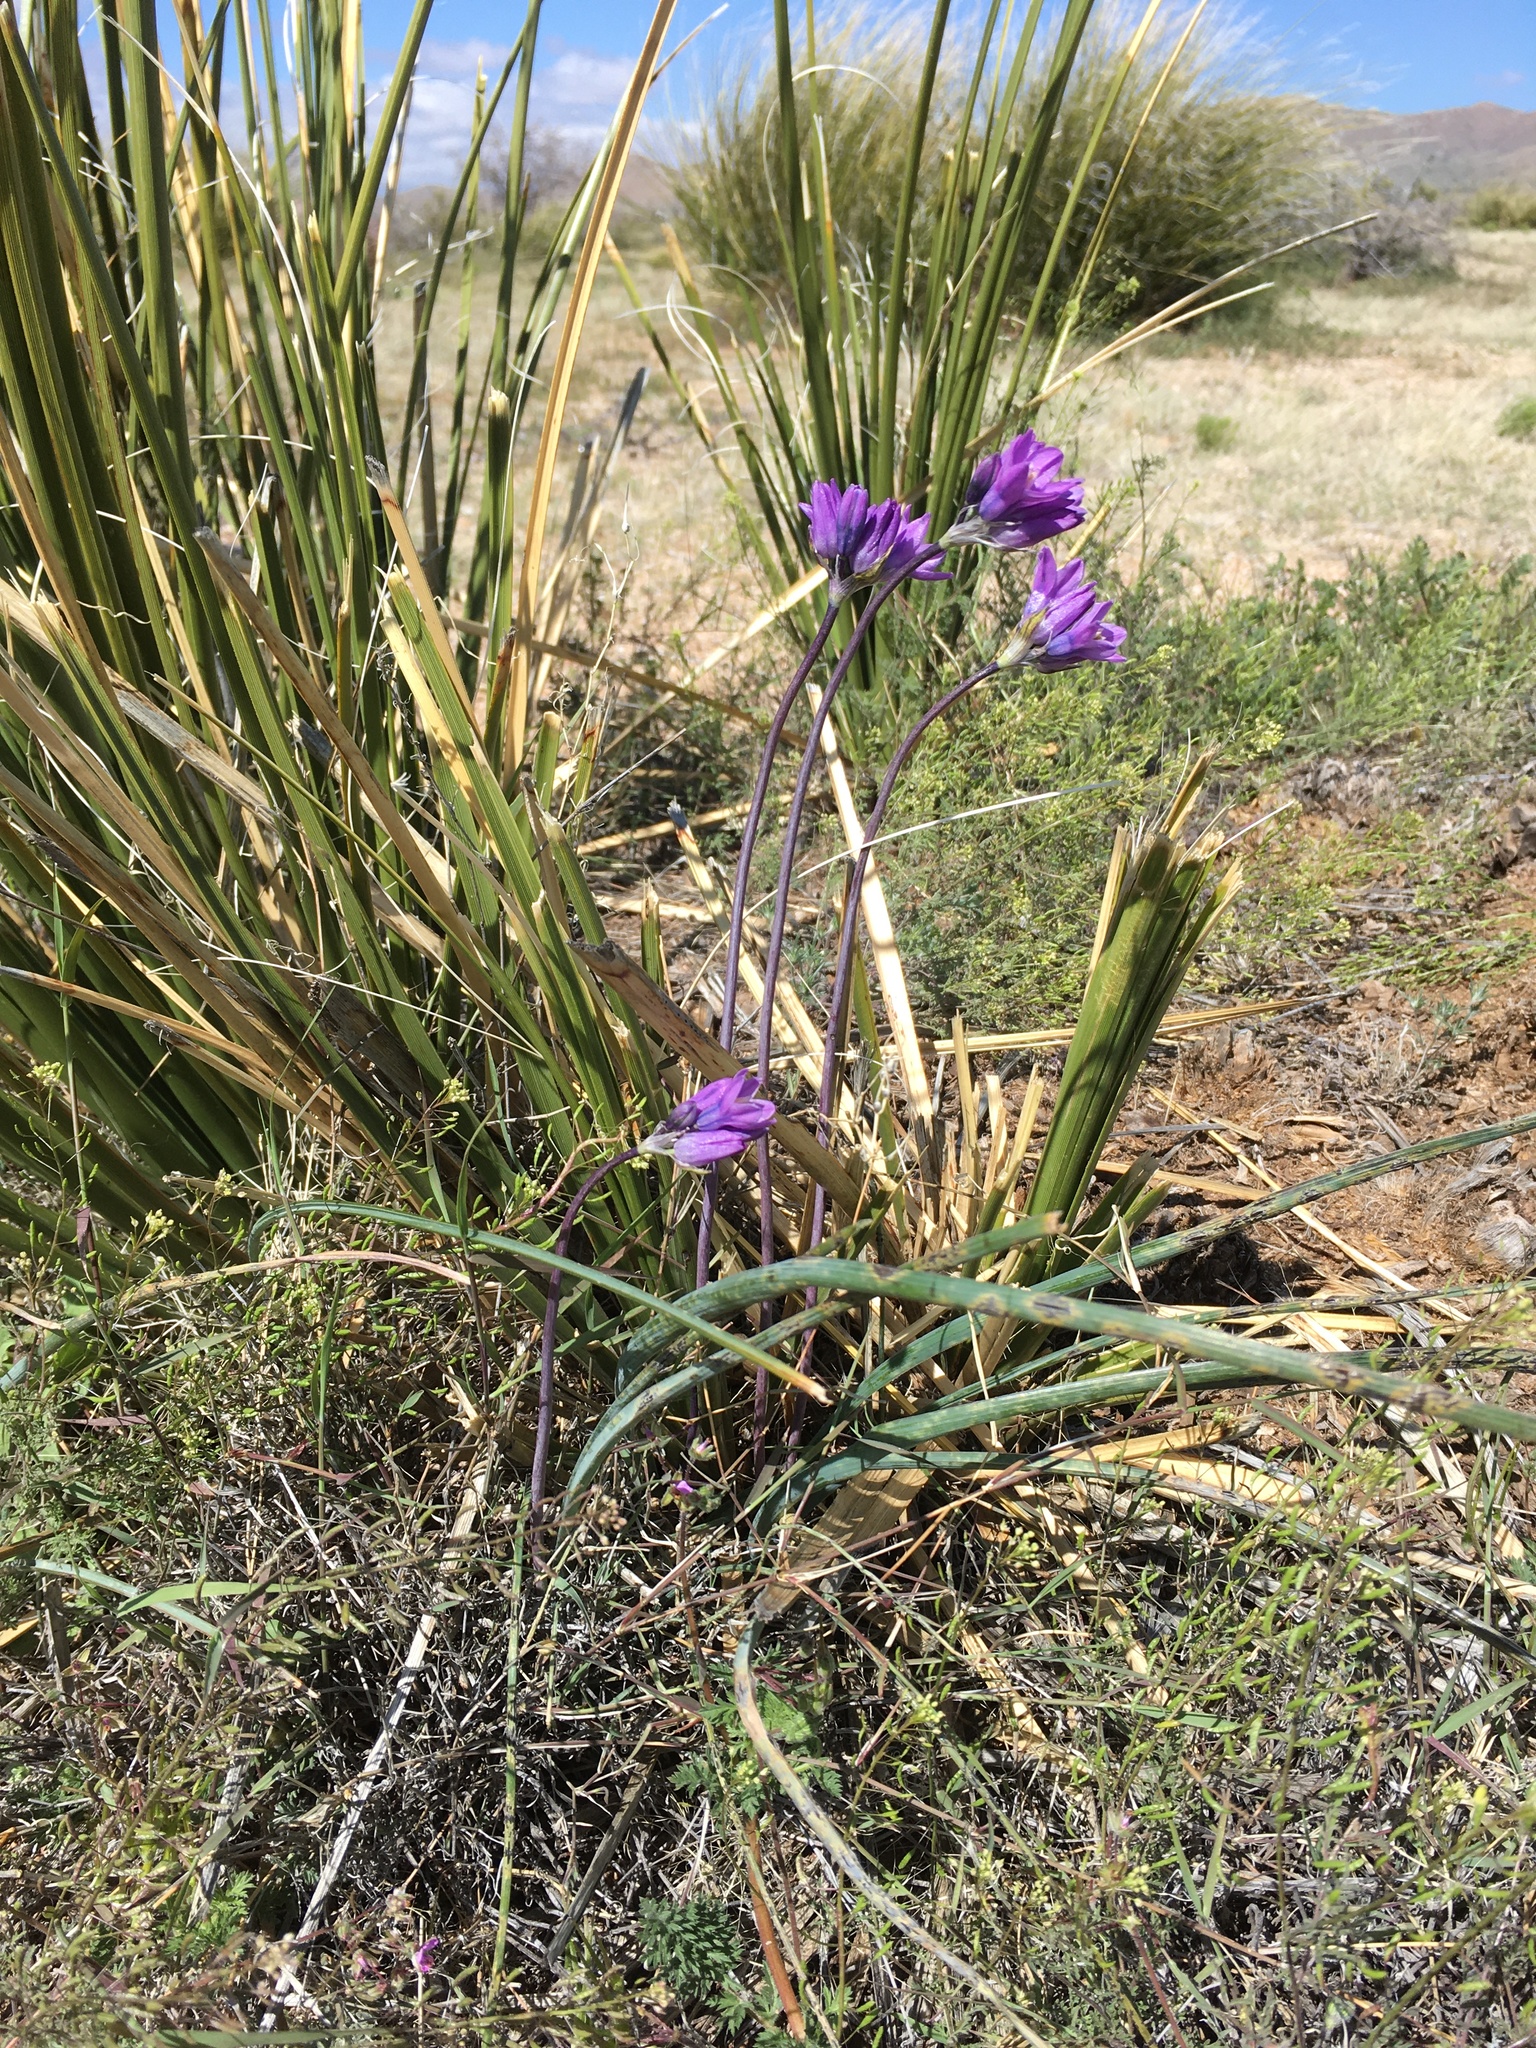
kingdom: Plantae
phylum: Tracheophyta
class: Liliopsida
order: Asparagales
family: Asparagaceae
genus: Dipterostemon
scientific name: Dipterostemon capitatus
